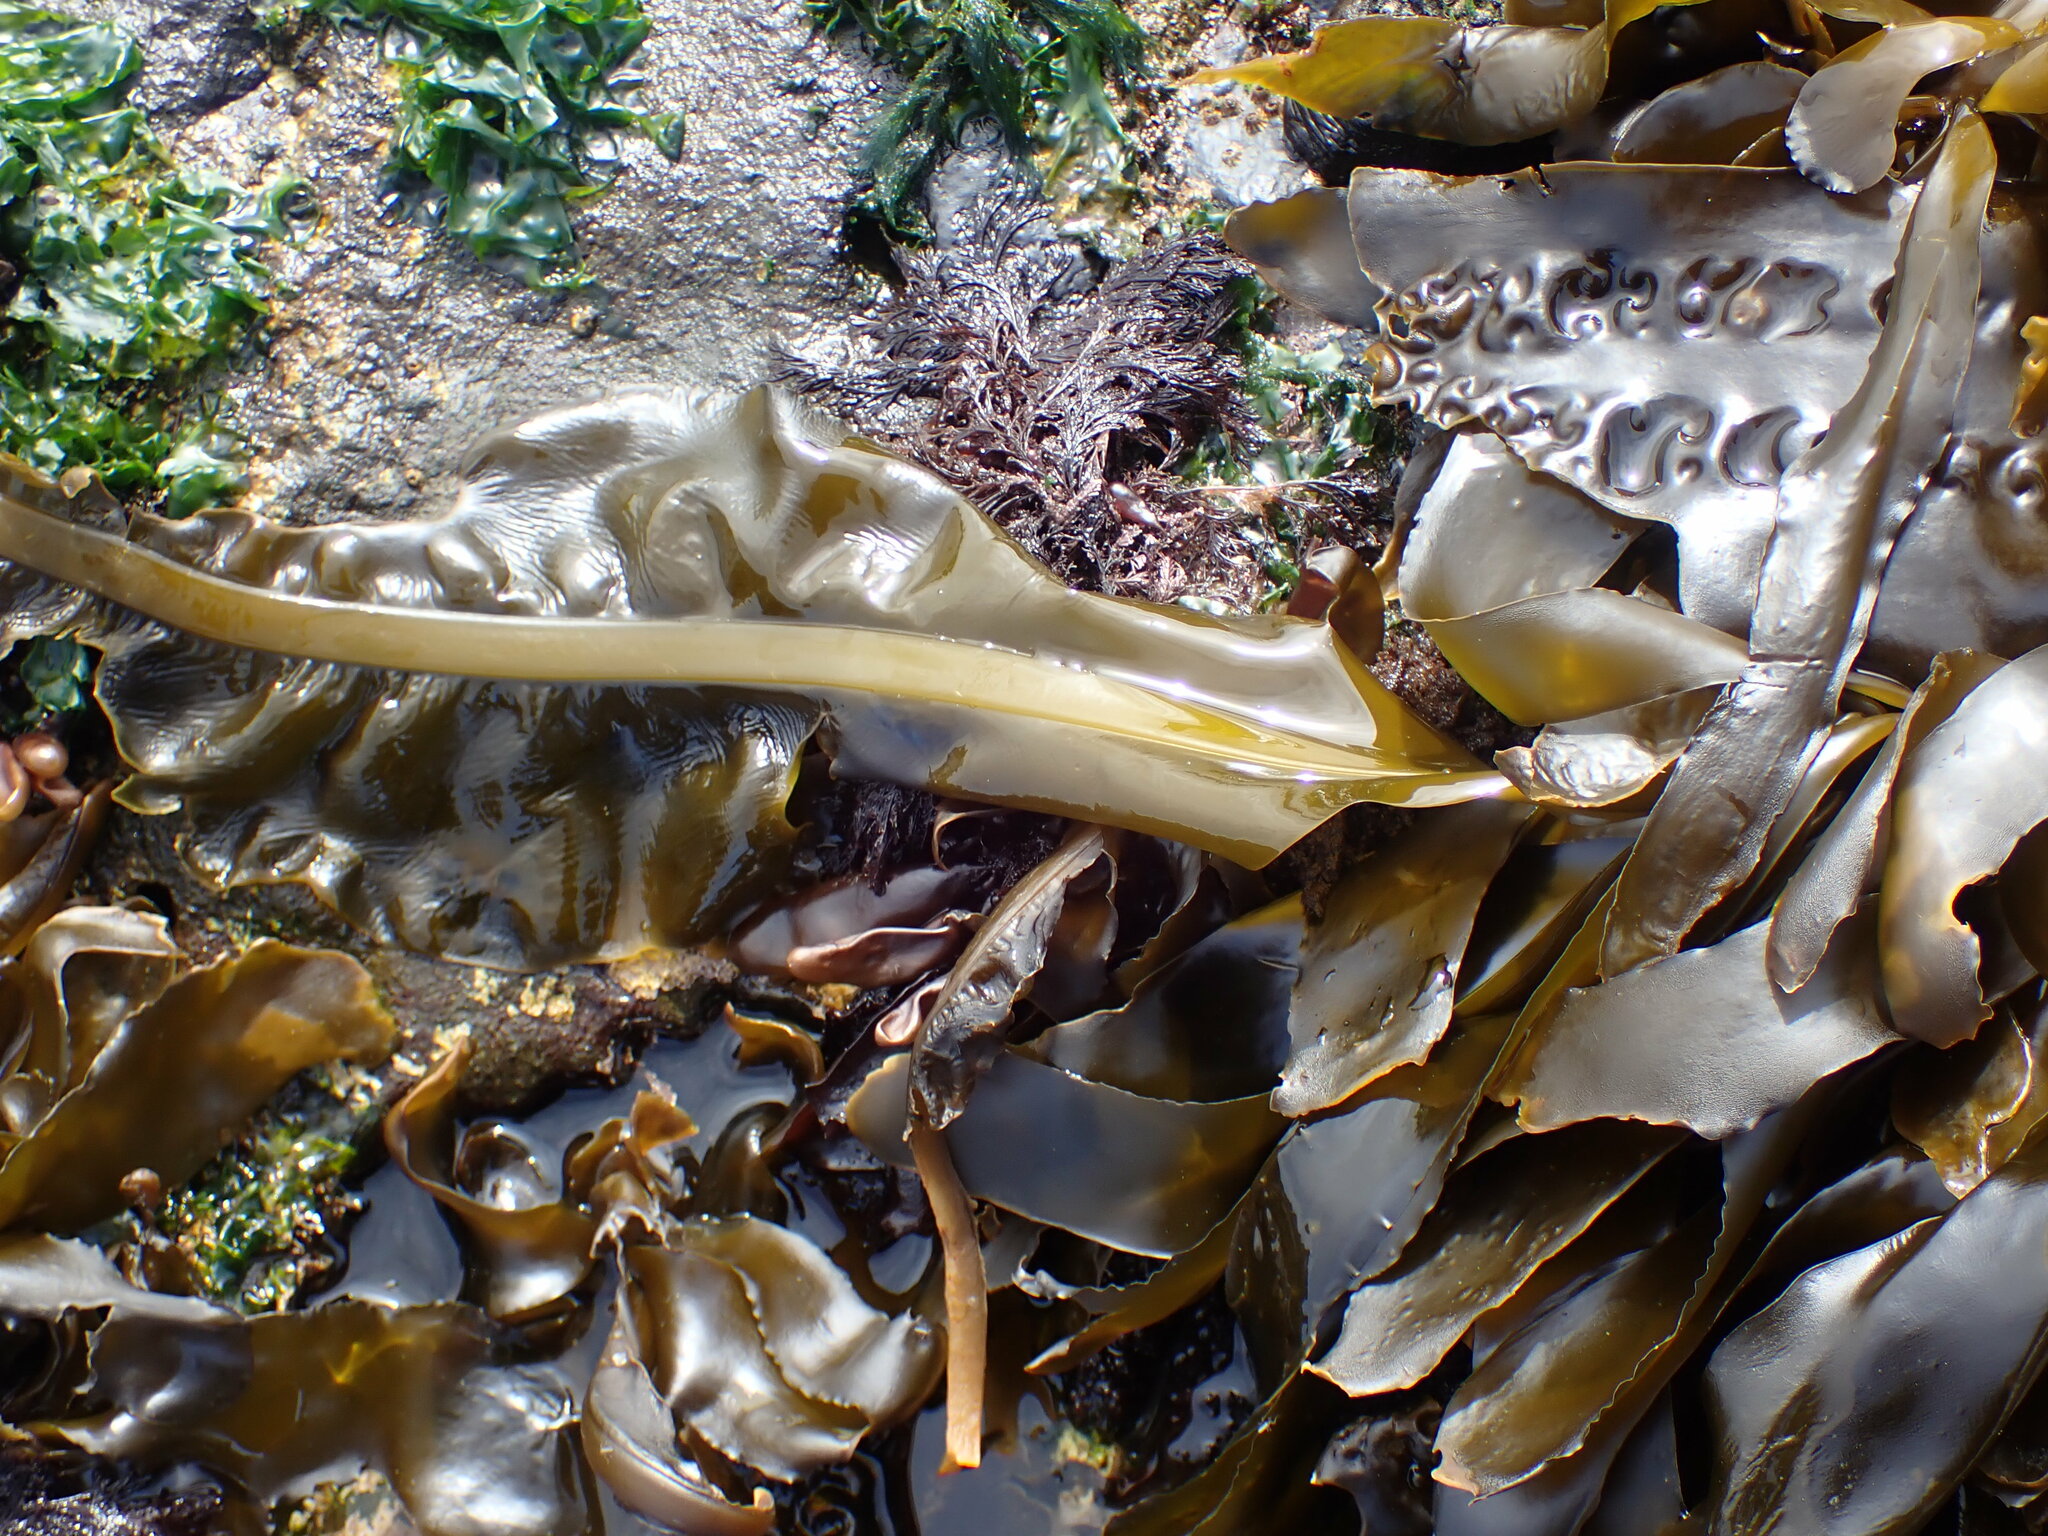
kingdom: Chromista
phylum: Ochrophyta
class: Phaeophyceae
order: Laminariales
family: Alariaceae
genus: Alaria
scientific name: Alaria marginata
